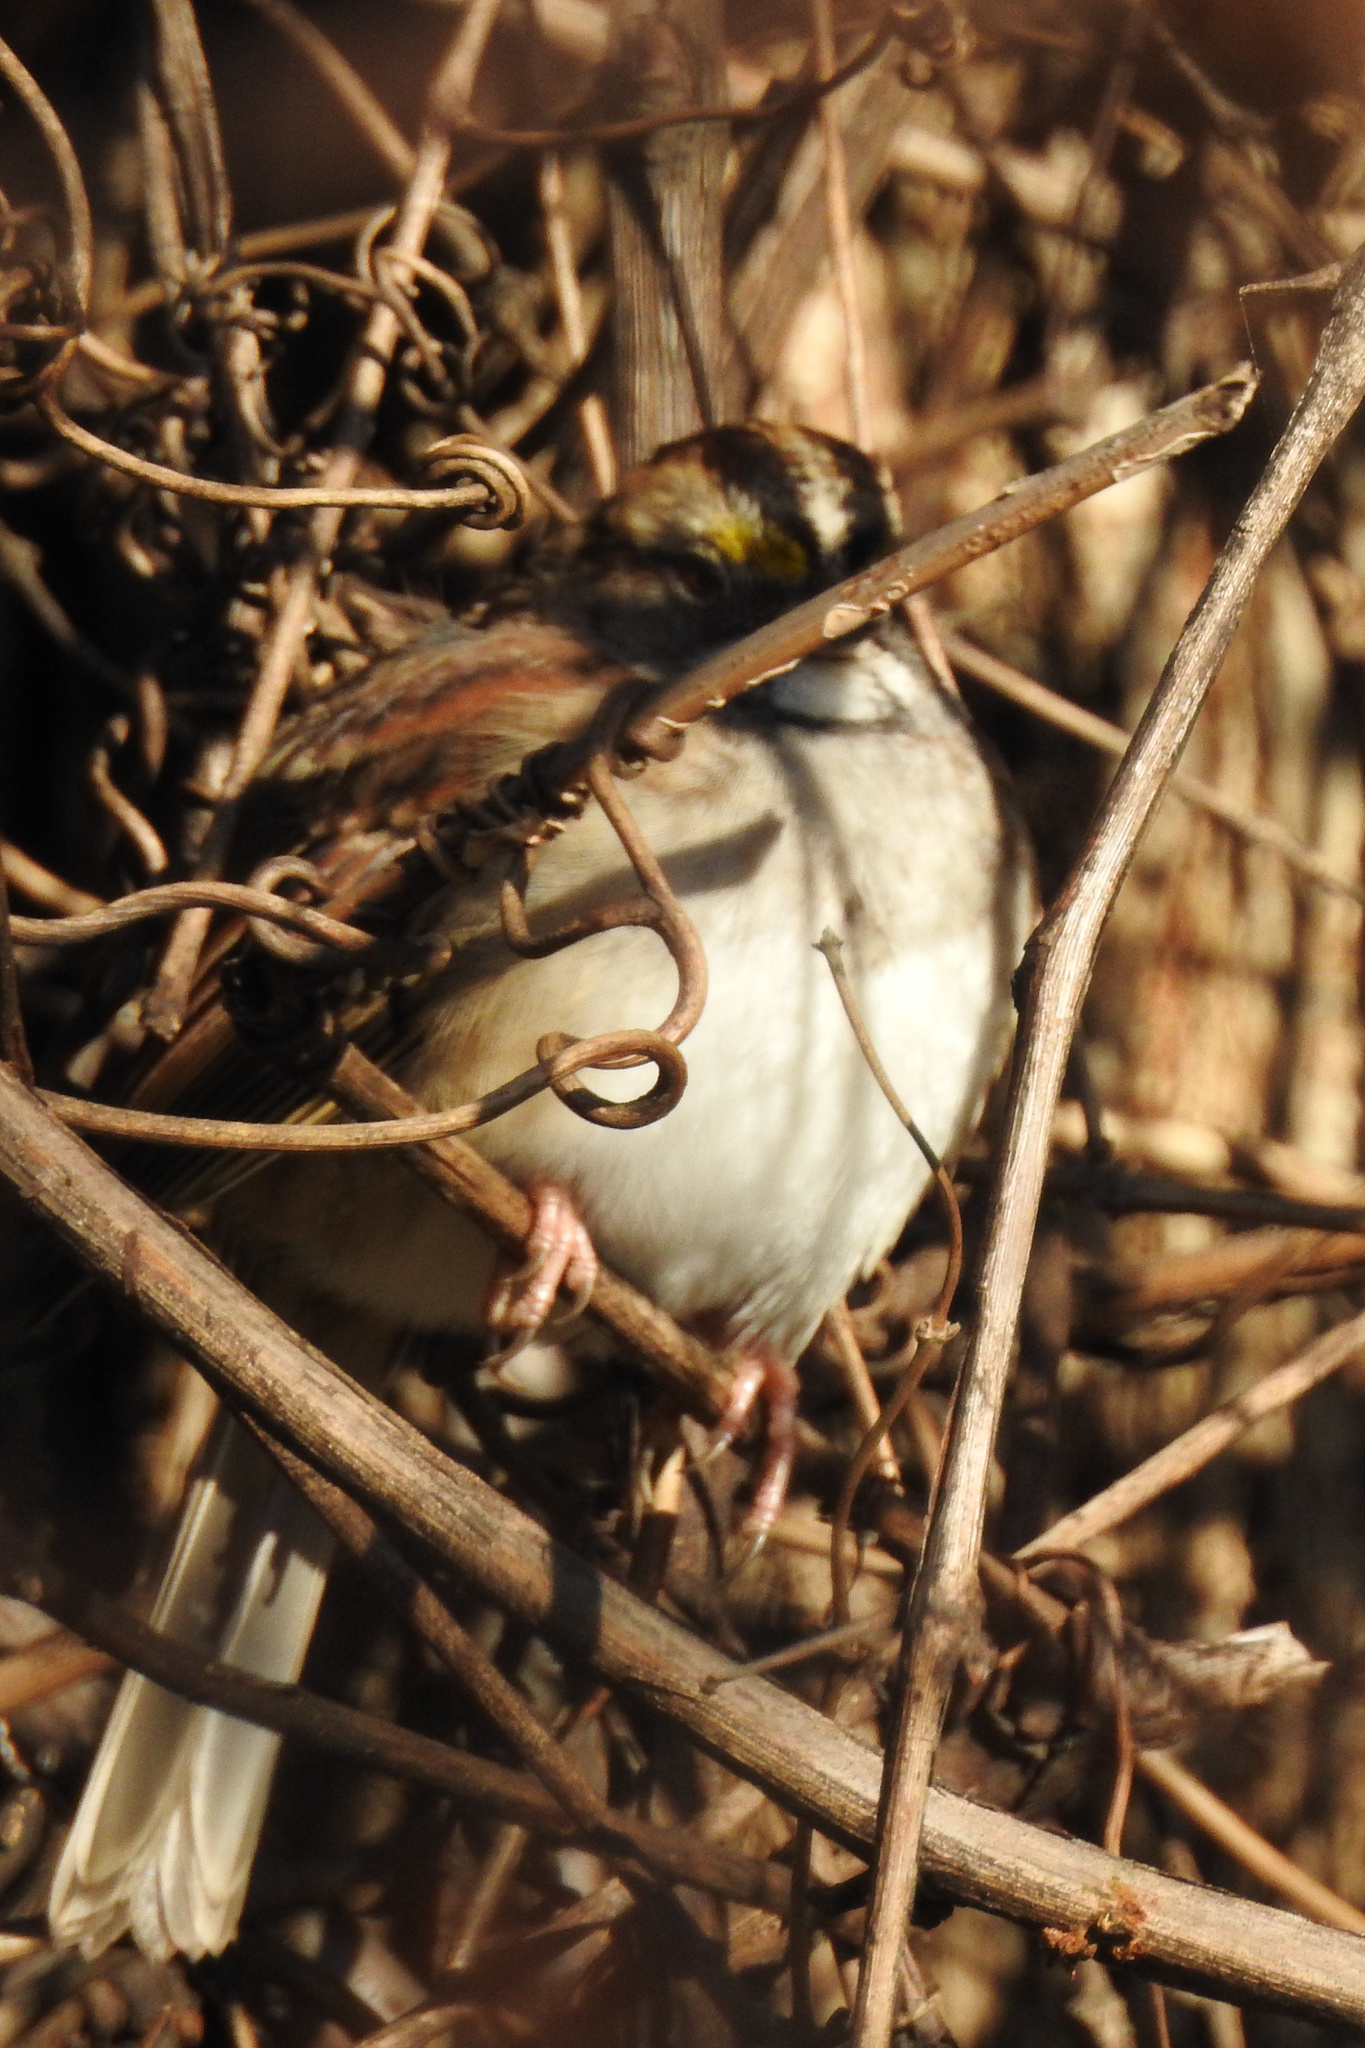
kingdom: Animalia
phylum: Chordata
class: Aves
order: Passeriformes
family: Passerellidae
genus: Zonotrichia
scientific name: Zonotrichia albicollis
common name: White-throated sparrow
